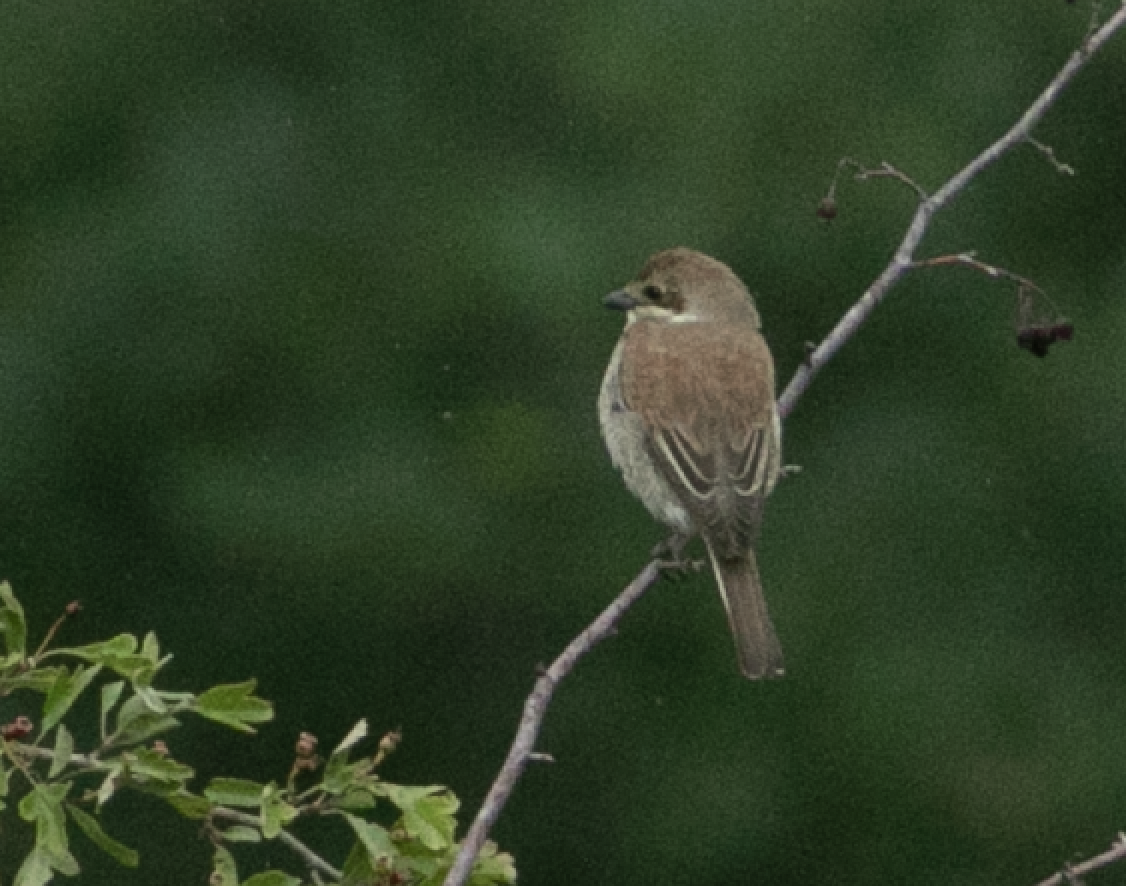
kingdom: Animalia
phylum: Chordata
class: Aves
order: Passeriformes
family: Laniidae
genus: Lanius
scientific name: Lanius collurio
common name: Red-backed shrike
